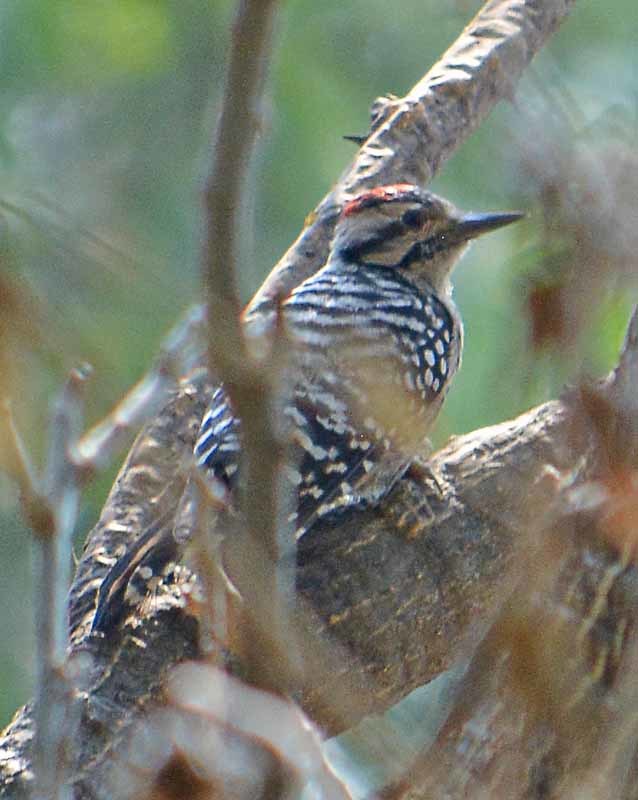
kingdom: Animalia
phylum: Chordata
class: Aves
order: Piciformes
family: Picidae
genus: Dryobates
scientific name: Dryobates scalaris
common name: Ladder-backed woodpecker
